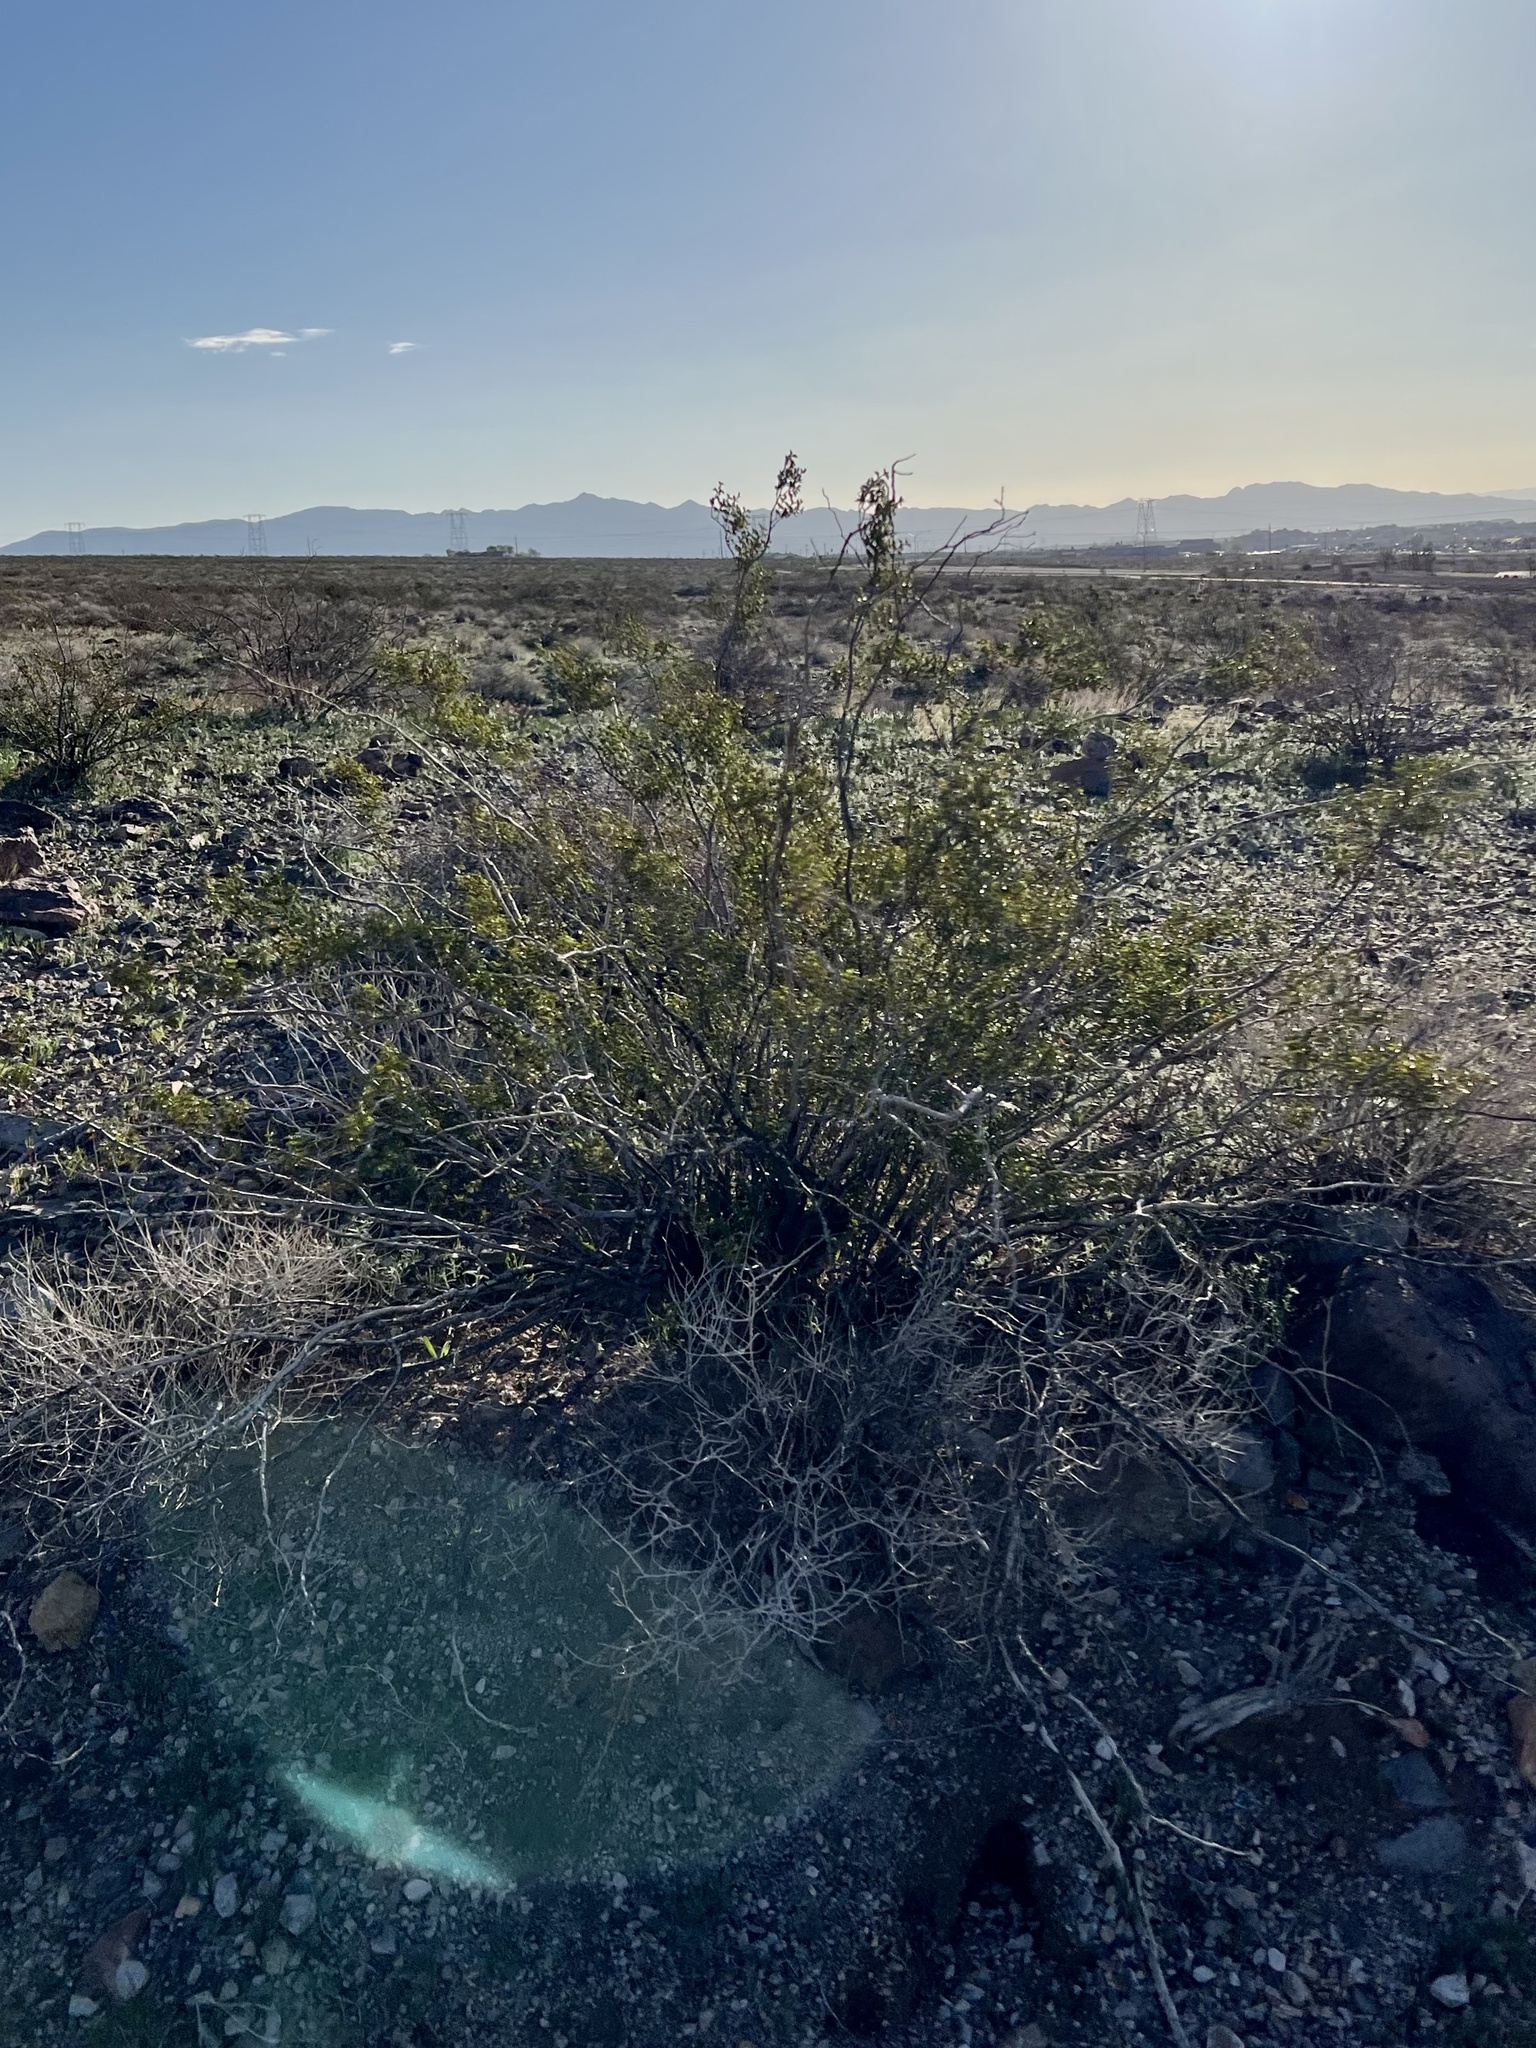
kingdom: Plantae
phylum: Tracheophyta
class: Magnoliopsida
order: Zygophyllales
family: Zygophyllaceae
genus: Larrea
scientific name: Larrea tridentata
